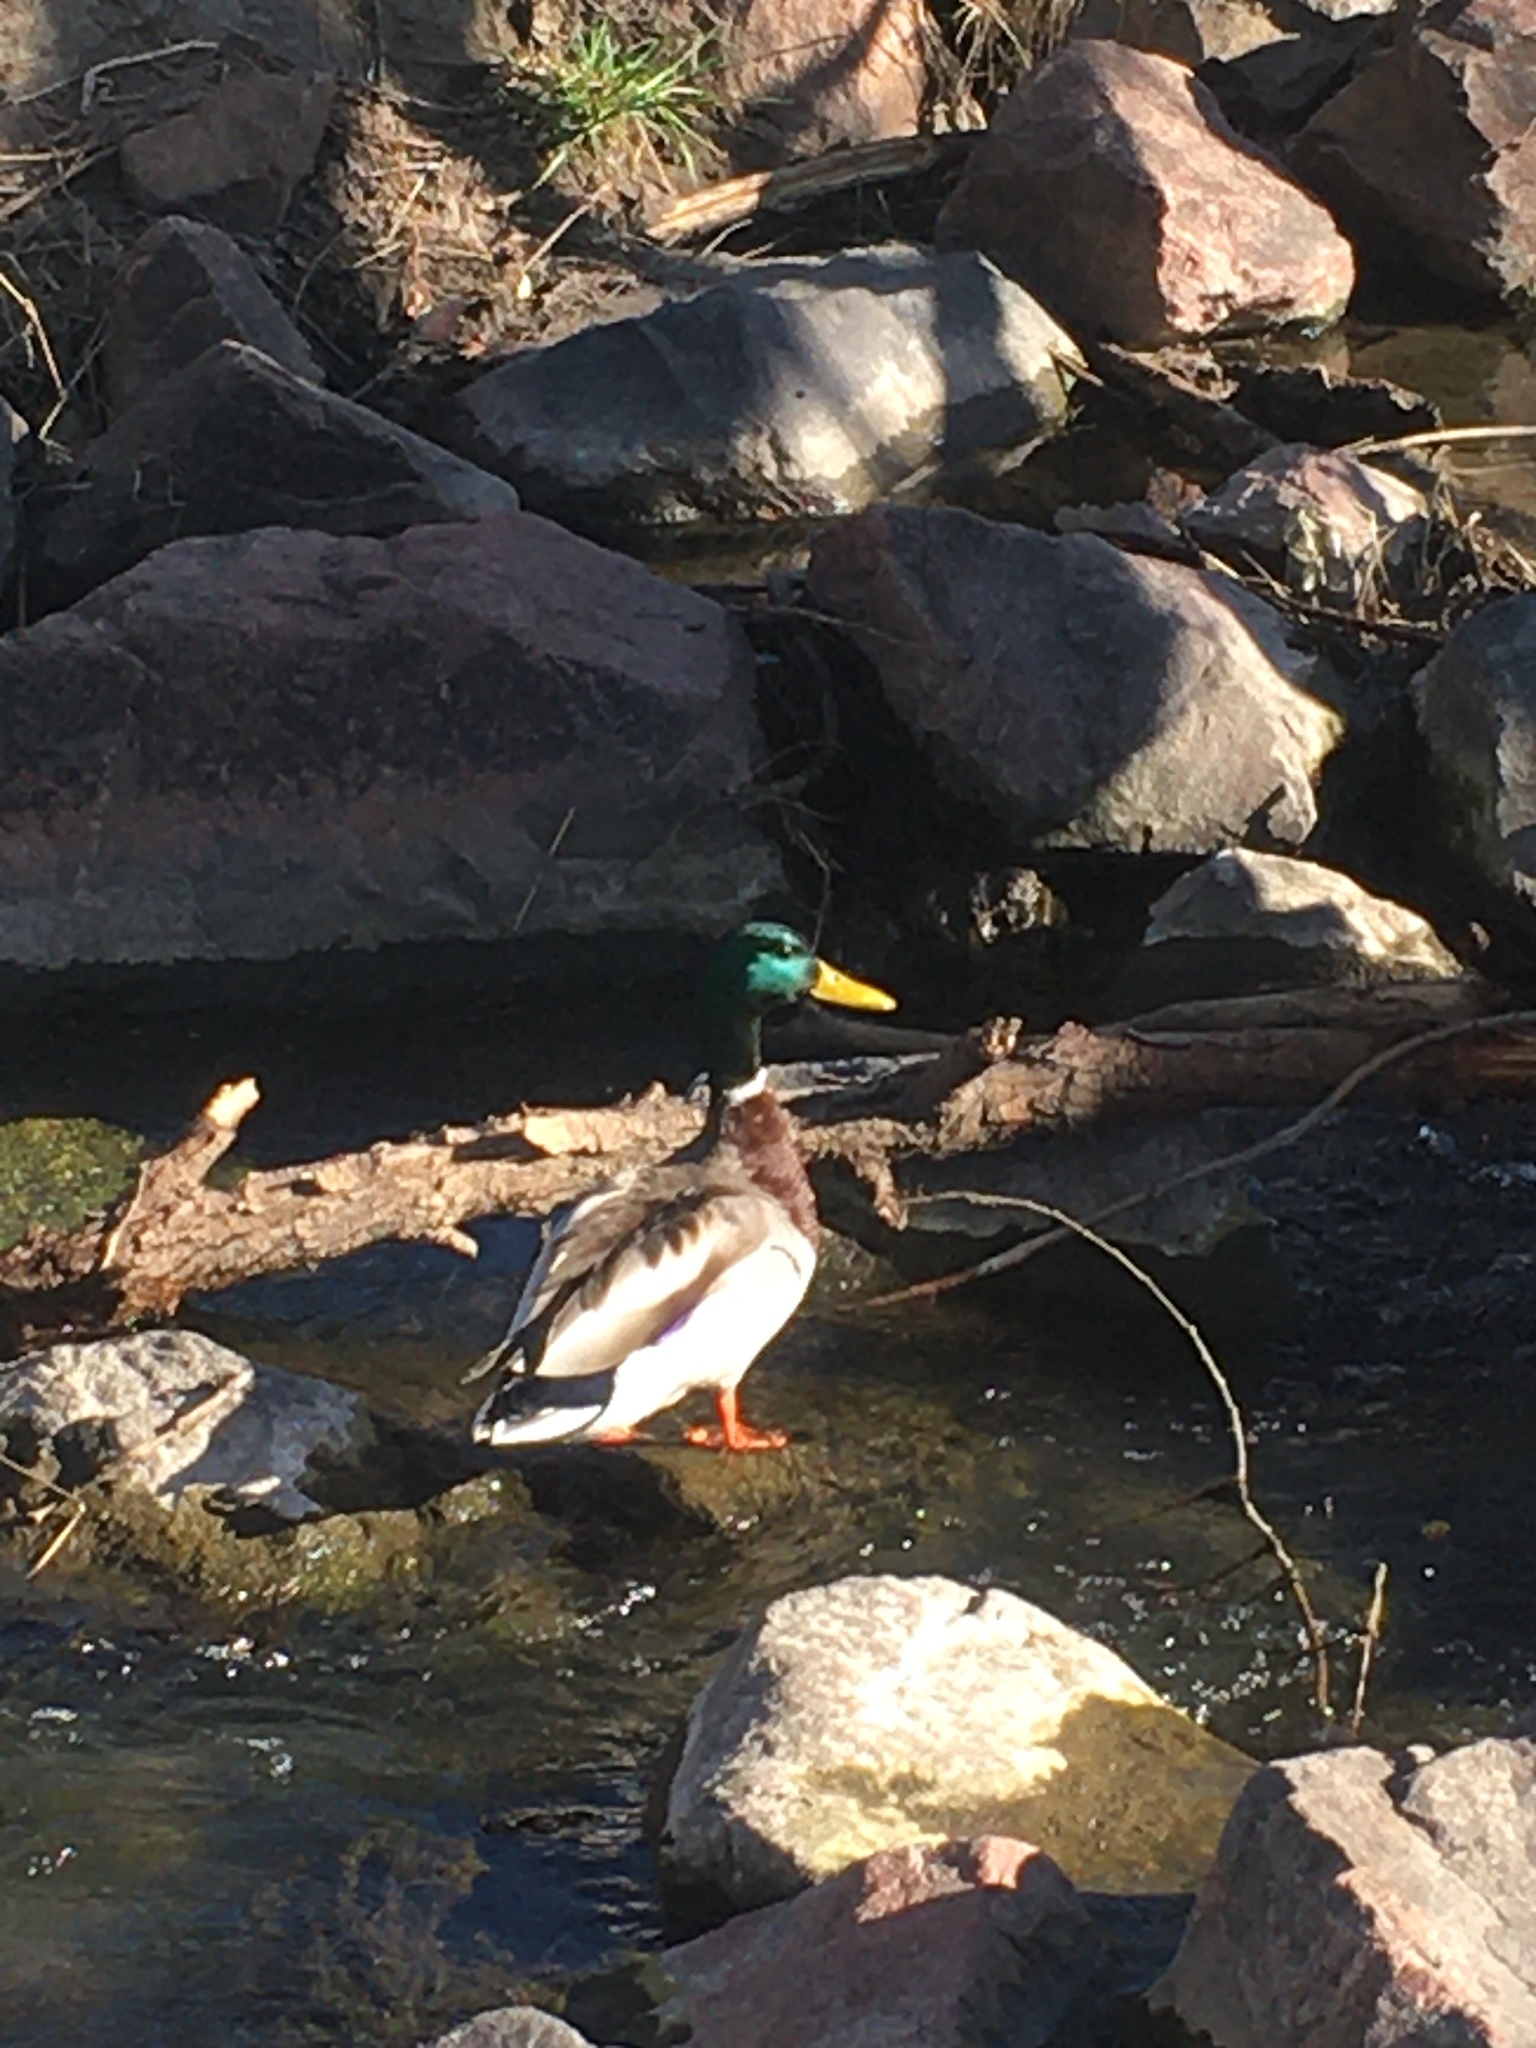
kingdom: Animalia
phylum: Chordata
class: Aves
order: Anseriformes
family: Anatidae
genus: Anas
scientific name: Anas platyrhynchos
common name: Mallard
